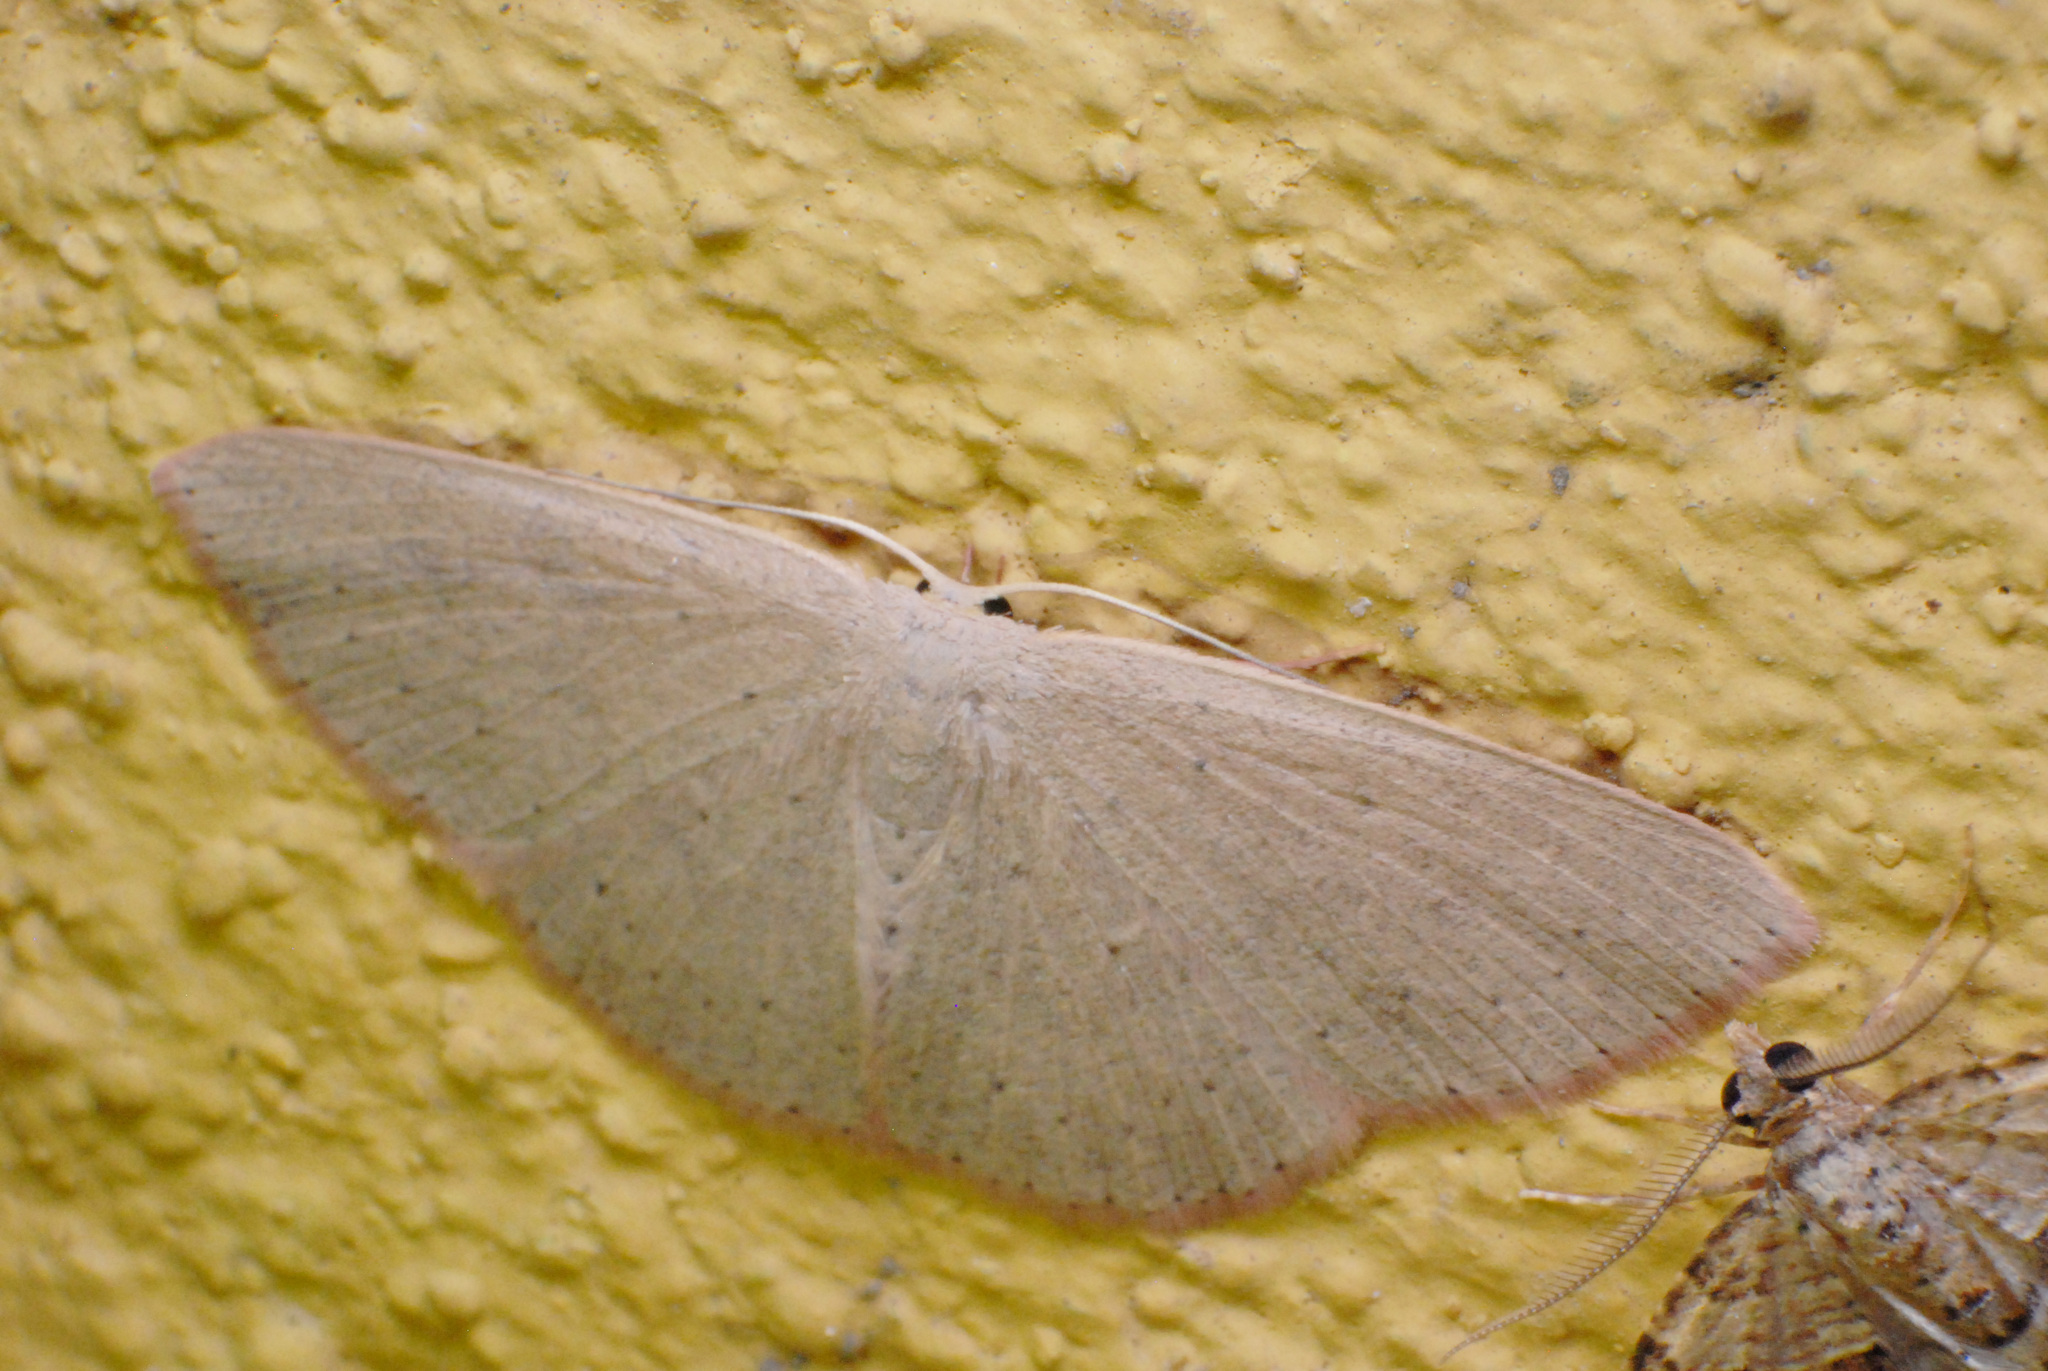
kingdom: Animalia
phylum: Arthropoda
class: Insecta
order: Lepidoptera
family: Geometridae
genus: Cyclophora
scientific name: Cyclophora obstataria
